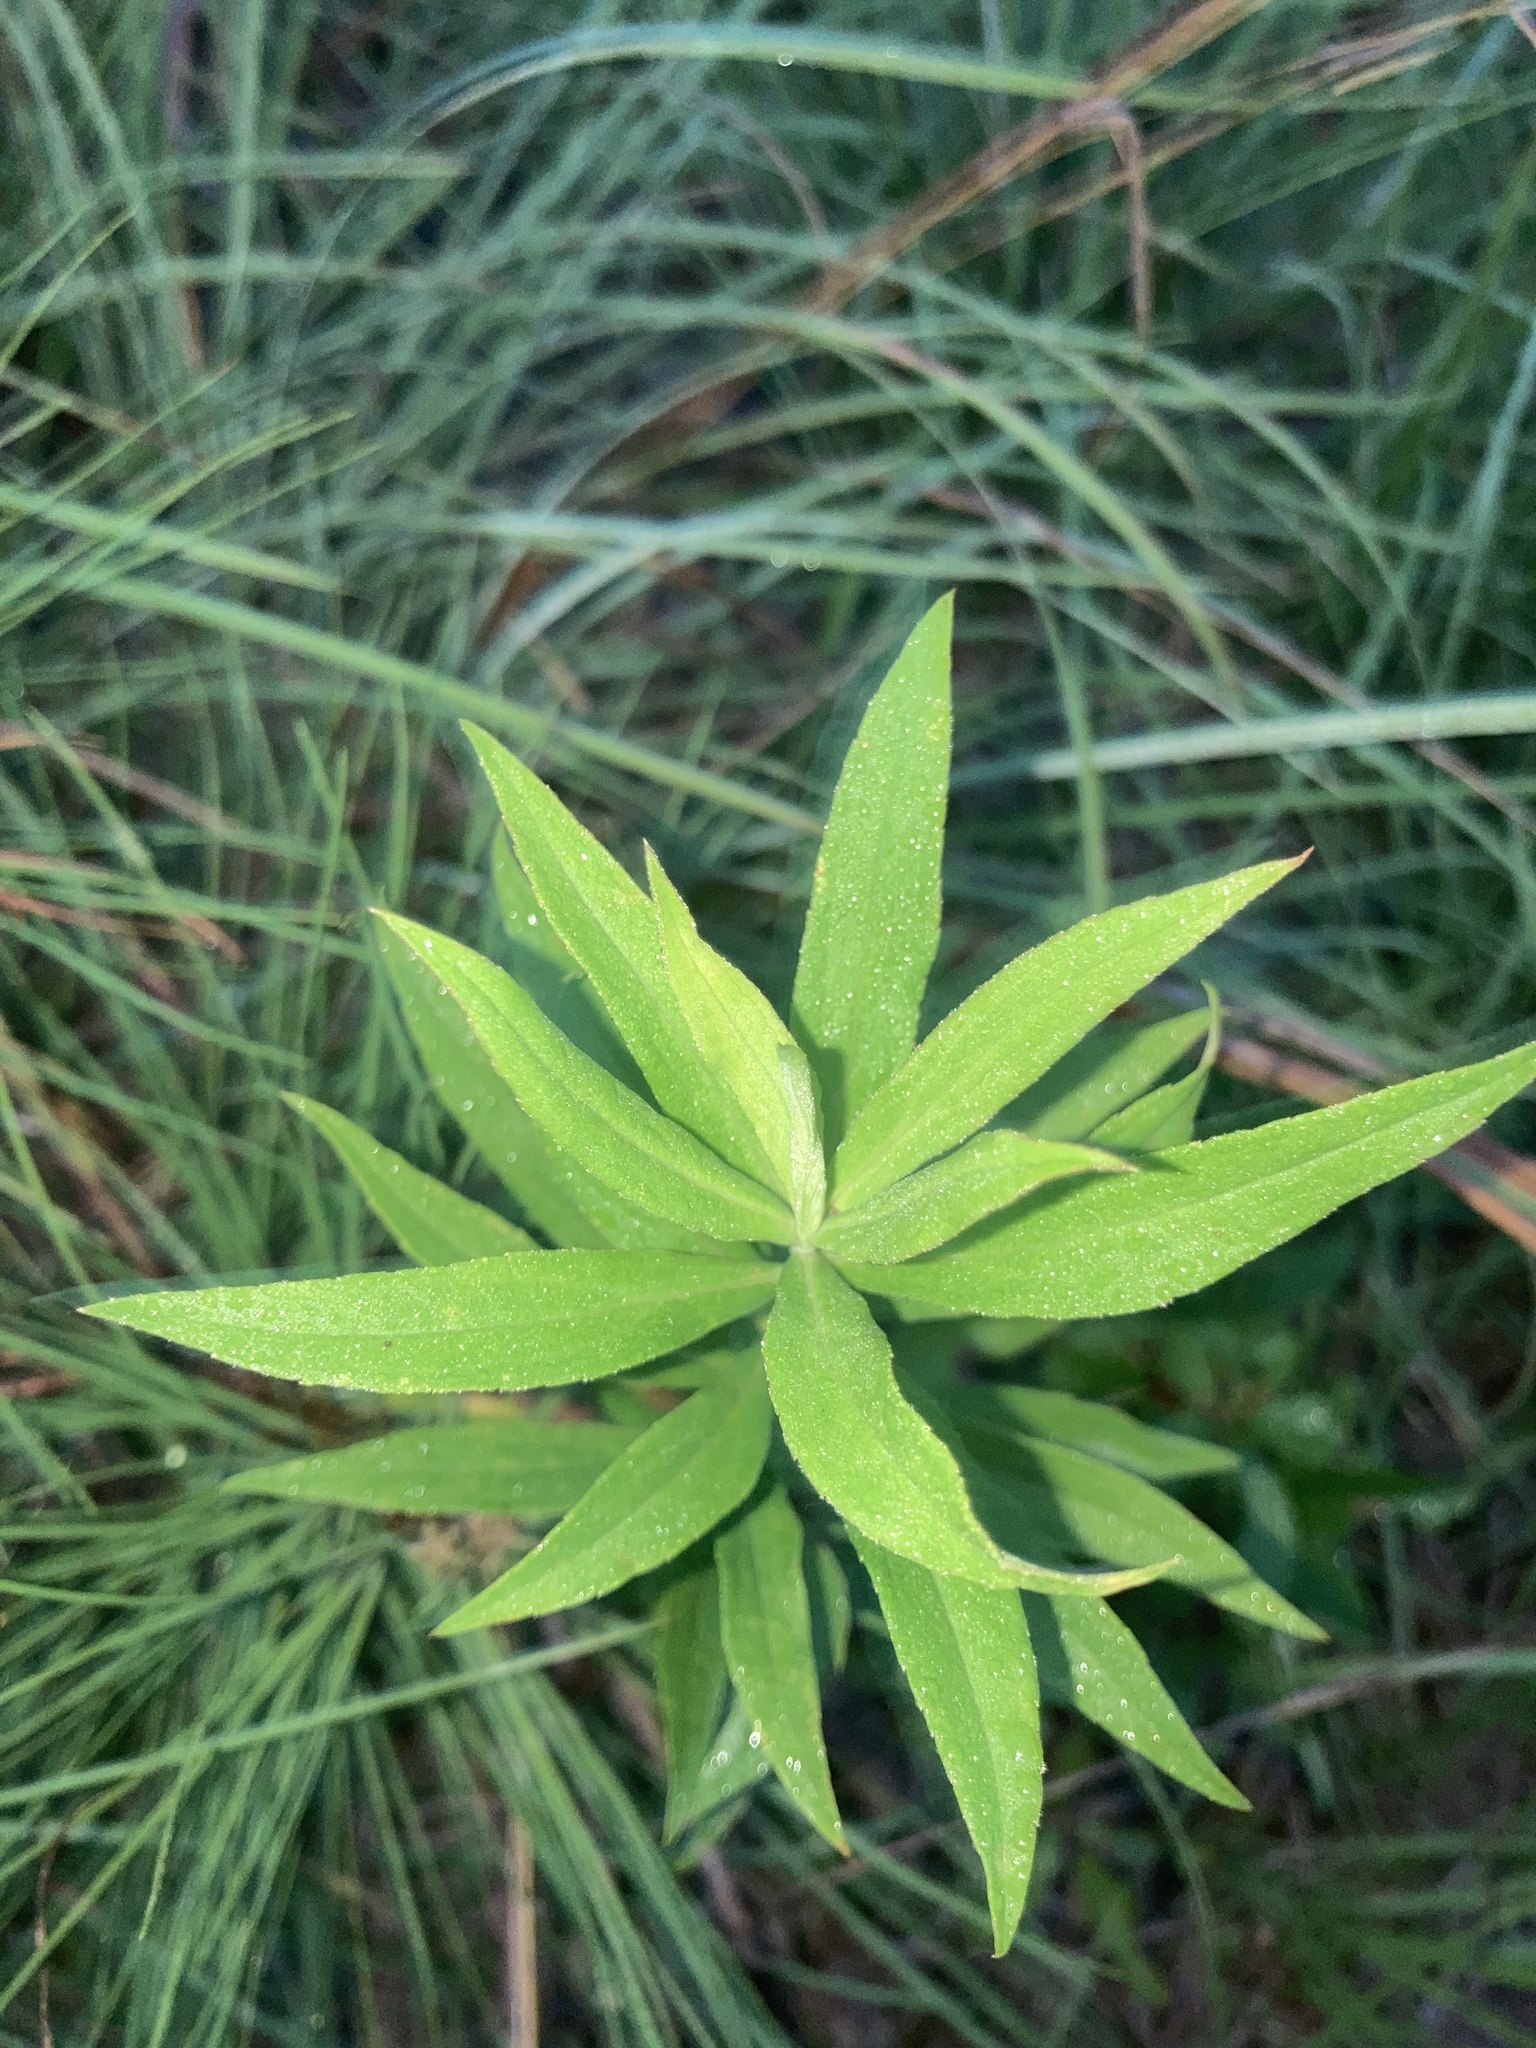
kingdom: Plantae
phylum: Tracheophyta
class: Magnoliopsida
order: Asterales
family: Asteraceae
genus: Solidago
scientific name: Solidago altissima
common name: Late goldenrod
